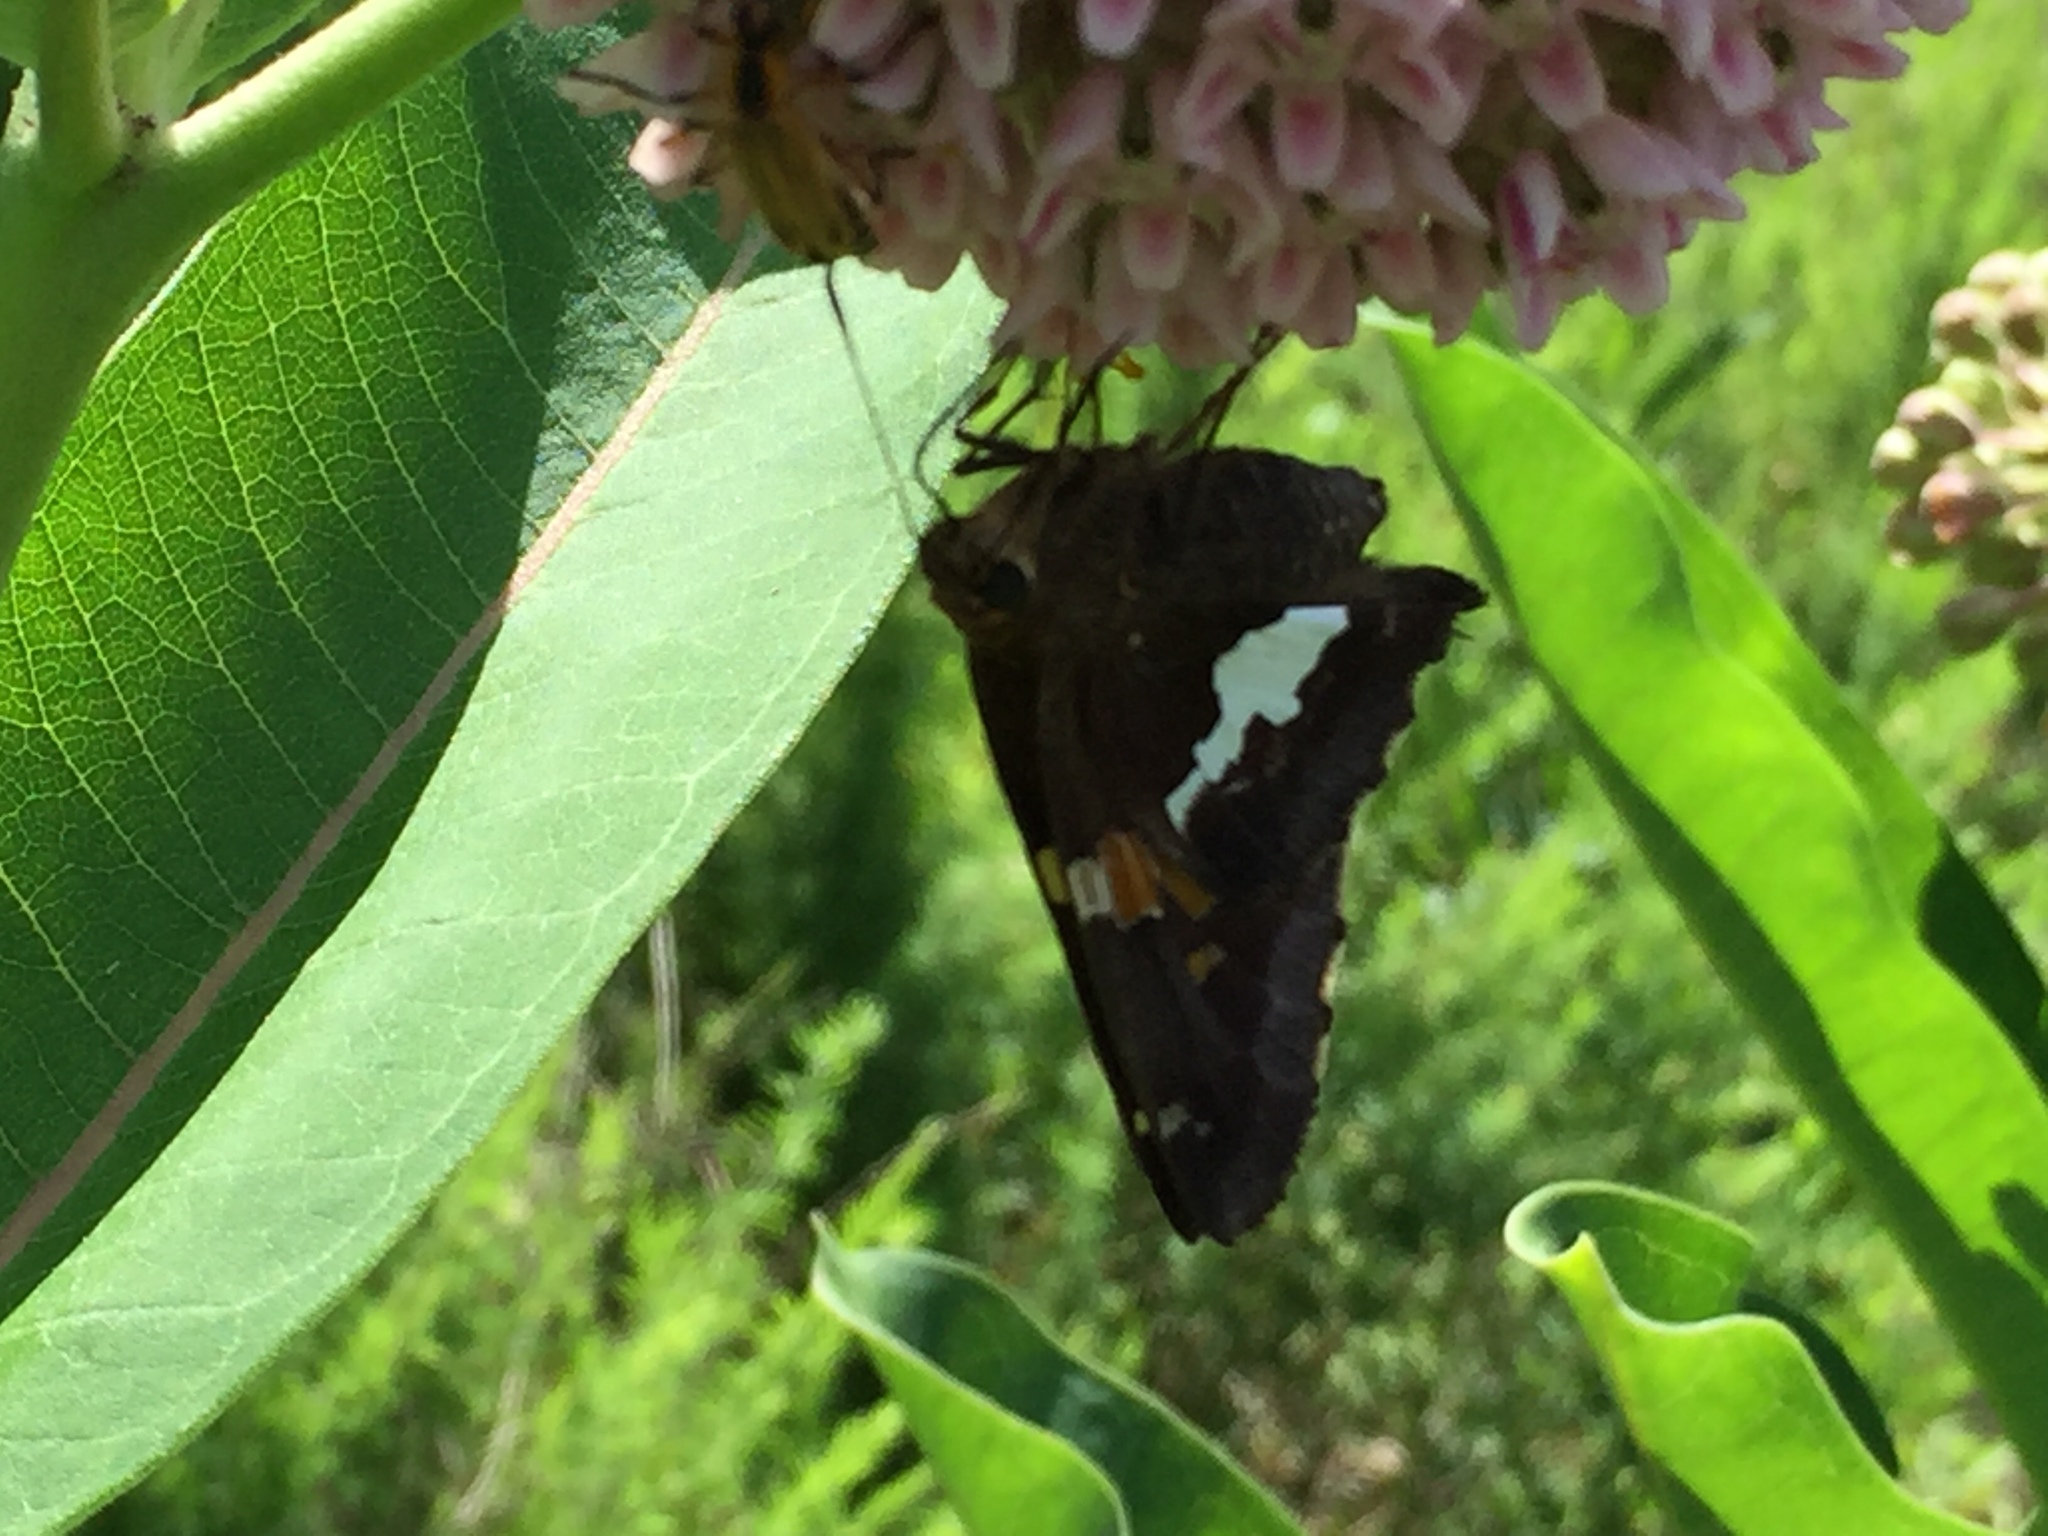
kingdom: Animalia
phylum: Arthropoda
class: Insecta
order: Lepidoptera
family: Hesperiidae
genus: Epargyreus
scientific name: Epargyreus clarus
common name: Silver-spotted skipper
